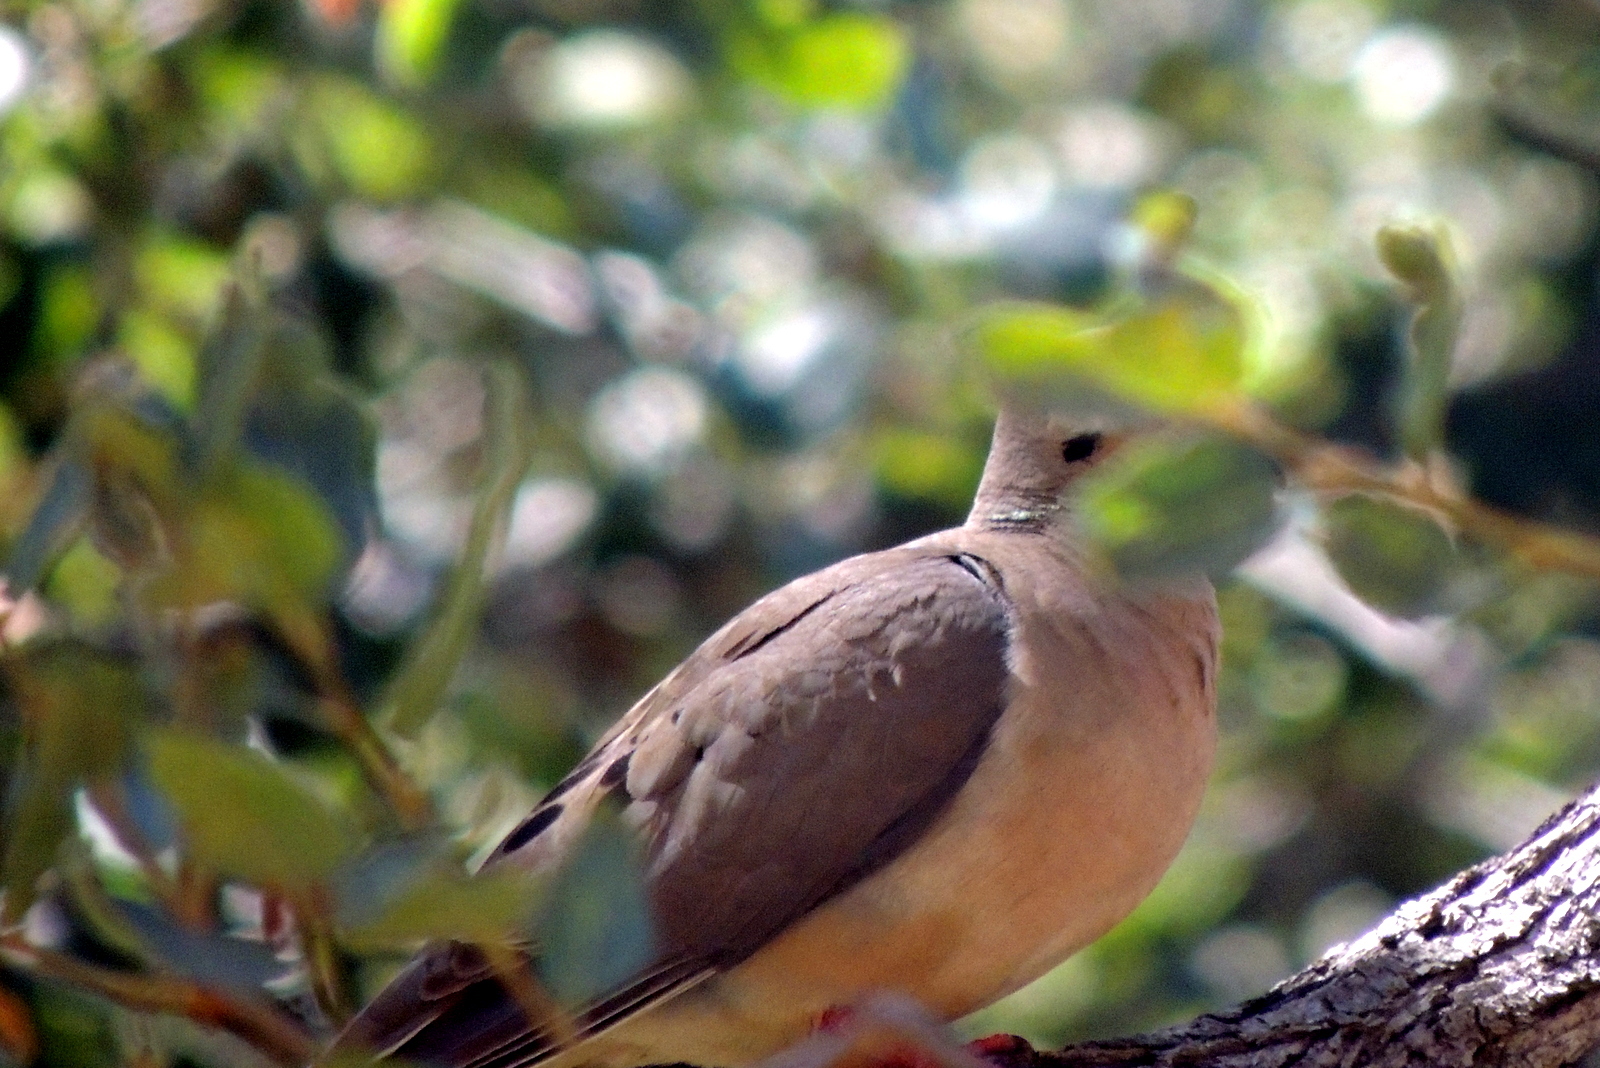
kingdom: Animalia
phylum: Chordata
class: Aves
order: Columbiformes
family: Columbidae
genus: Zenaida
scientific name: Zenaida macroura
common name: Mourning dove
